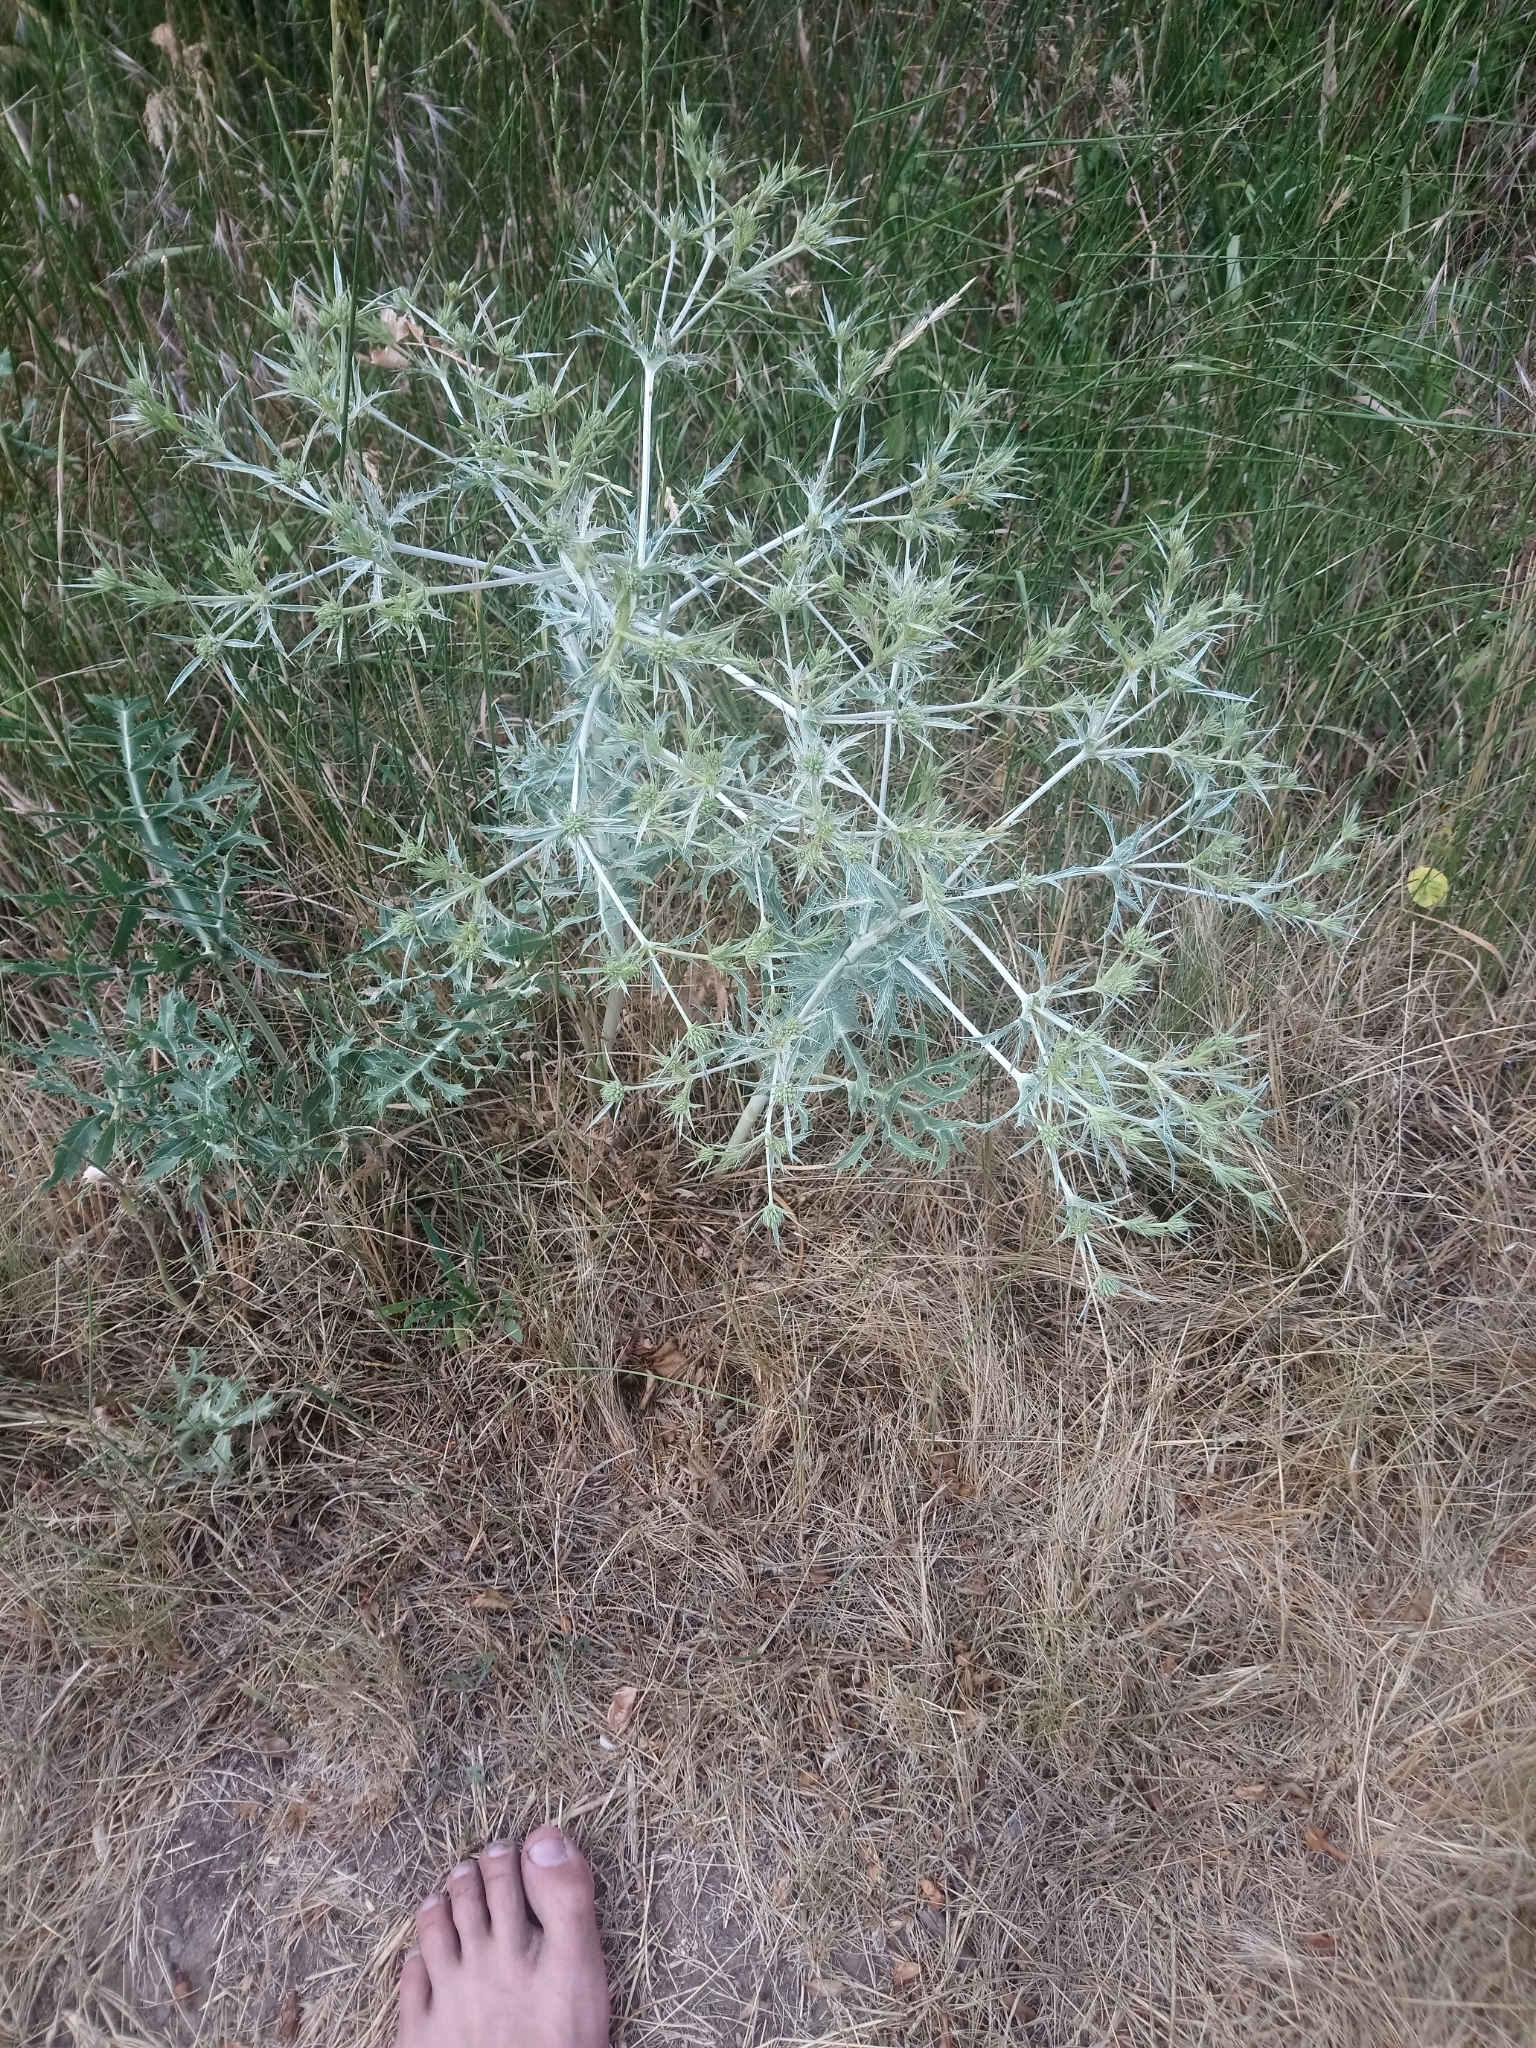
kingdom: Plantae
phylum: Tracheophyta
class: Magnoliopsida
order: Apiales
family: Apiaceae
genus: Eryngium
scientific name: Eryngium campestre
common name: Field eryngo
